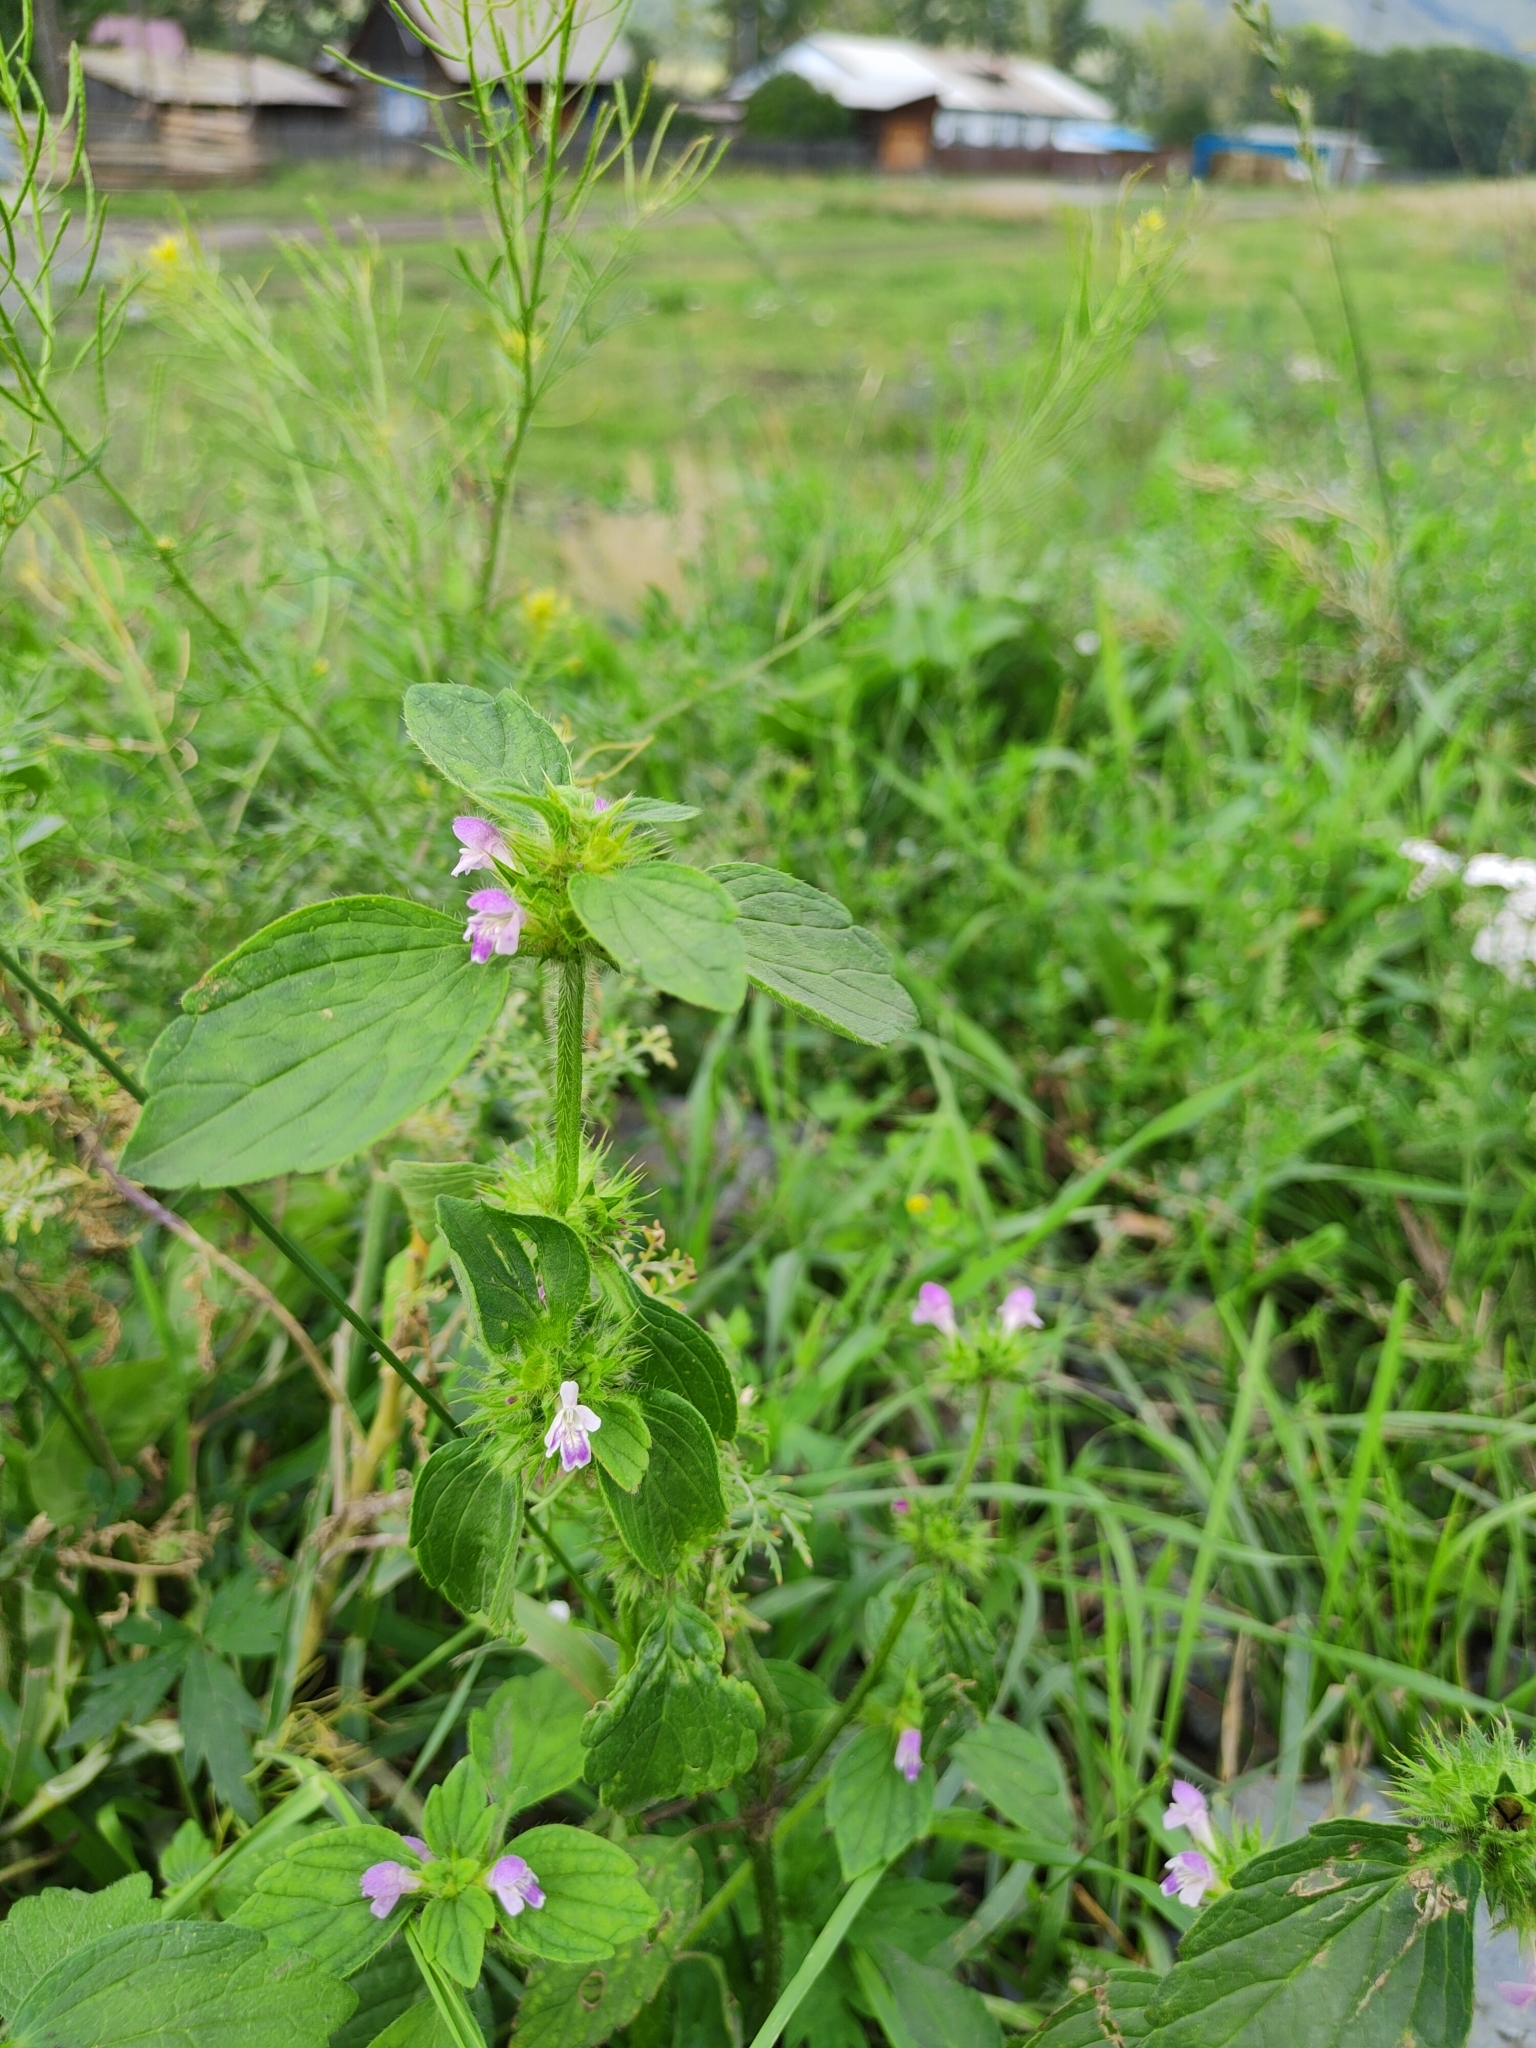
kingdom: Plantae
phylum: Tracheophyta
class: Magnoliopsida
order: Lamiales
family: Lamiaceae
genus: Galeopsis
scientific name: Galeopsis bifida
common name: Bifid hemp-nettle
